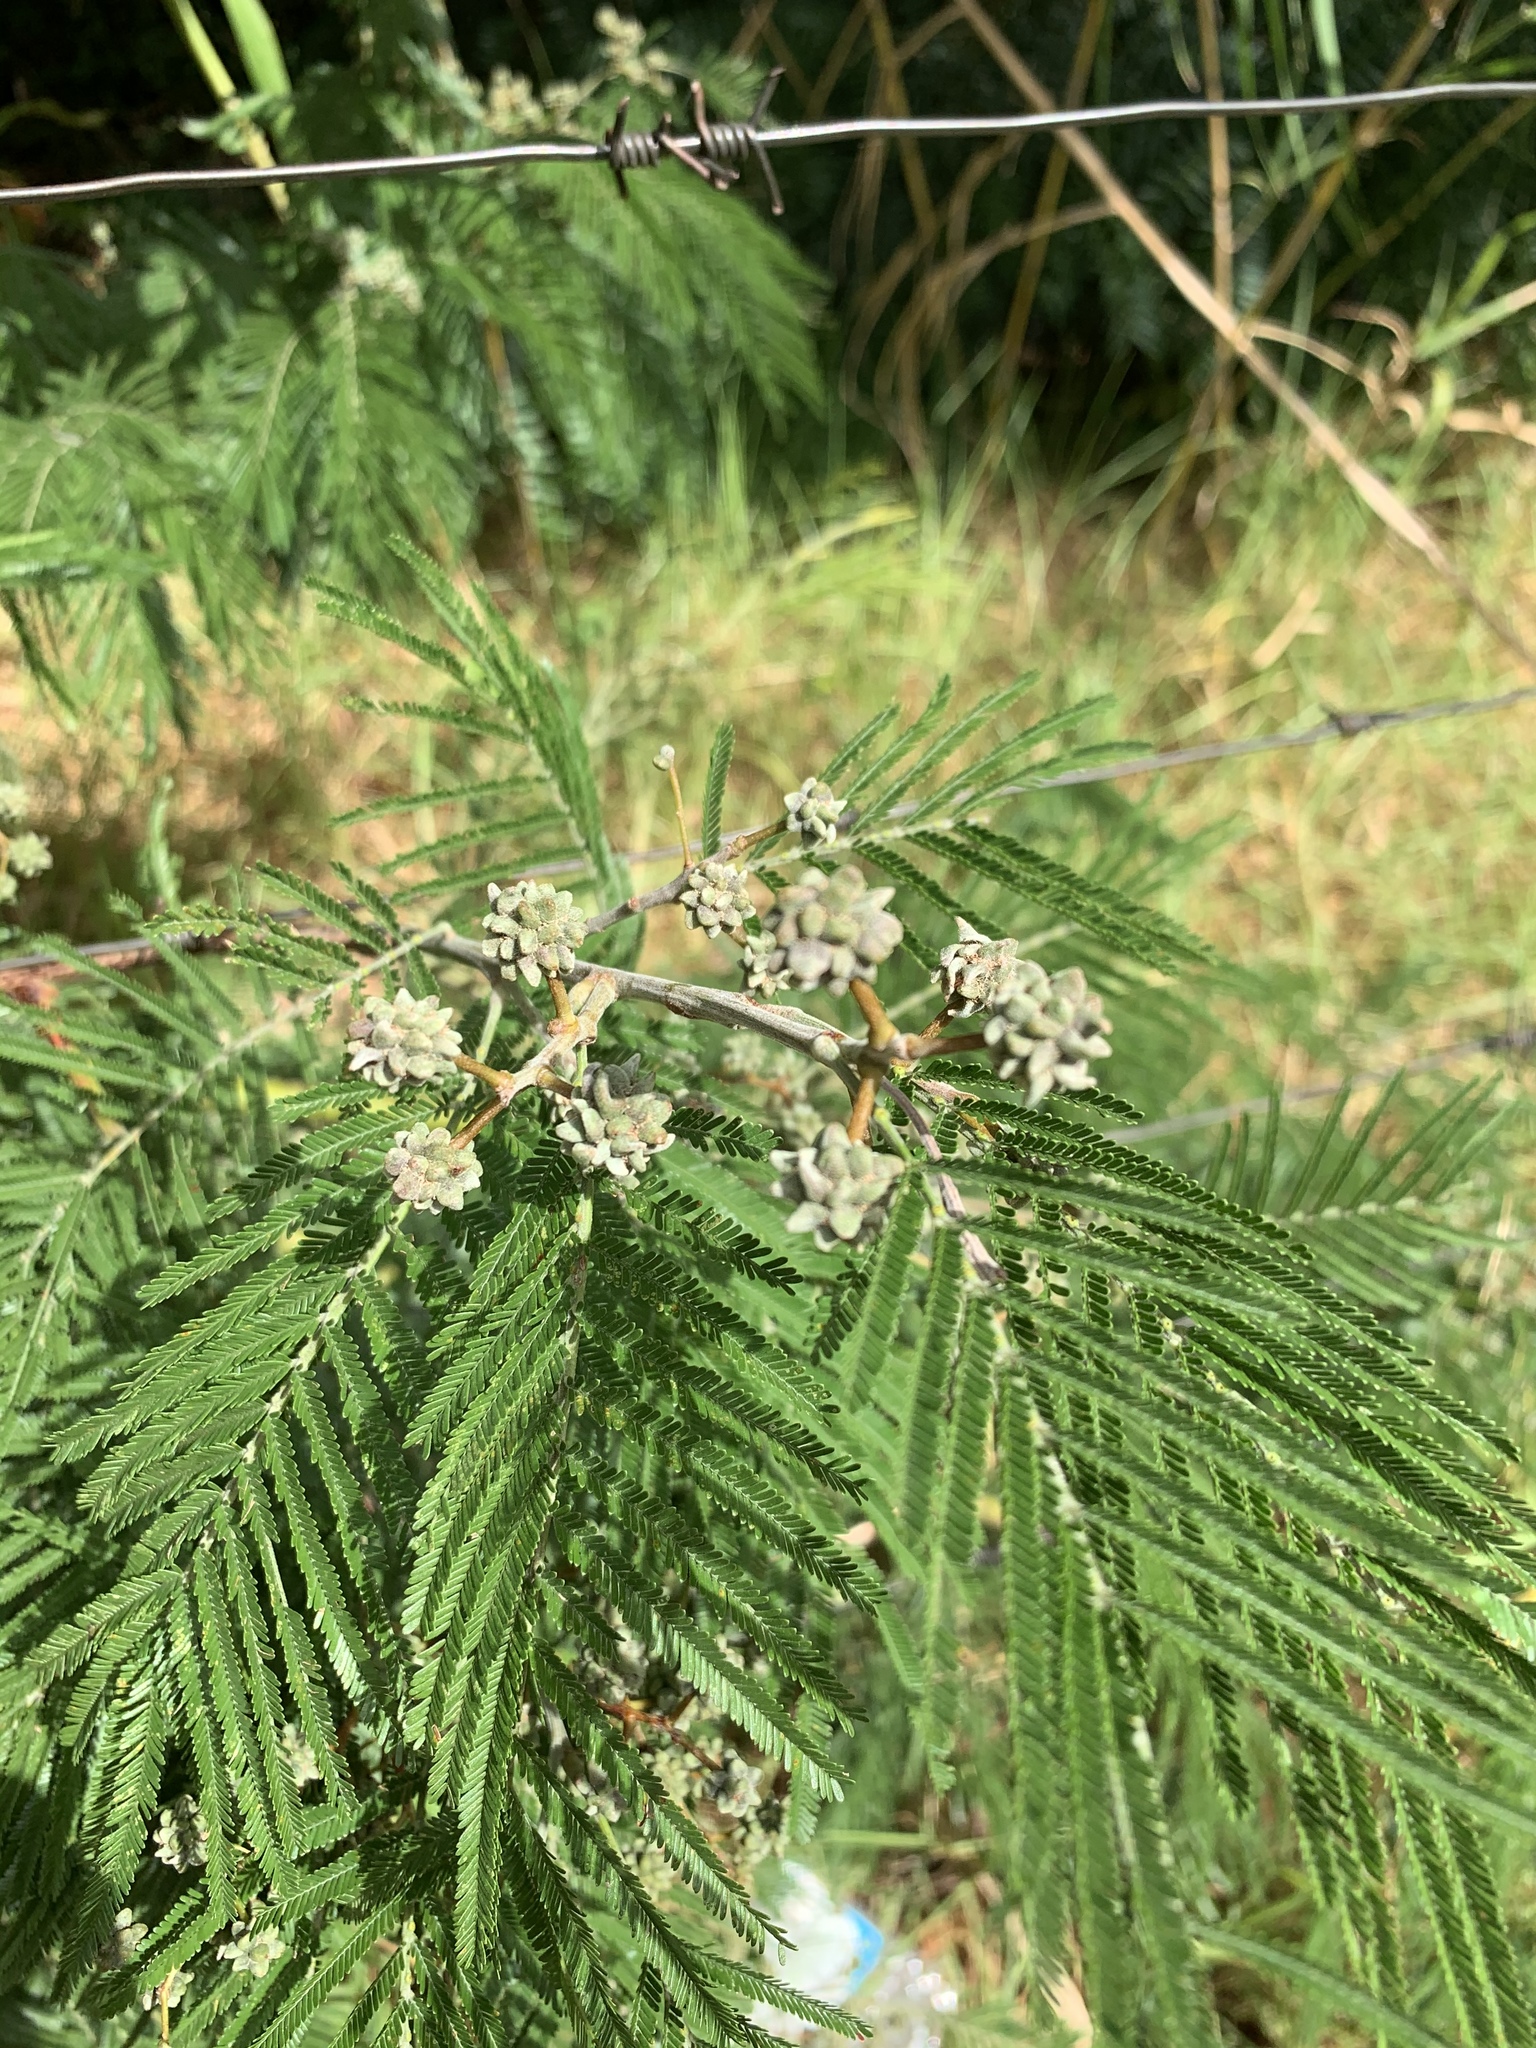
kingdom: Animalia
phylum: Arthropoda
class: Insecta
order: Diptera
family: Cecidomyiidae
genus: Dasineura
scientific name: Dasineura rubiformis
